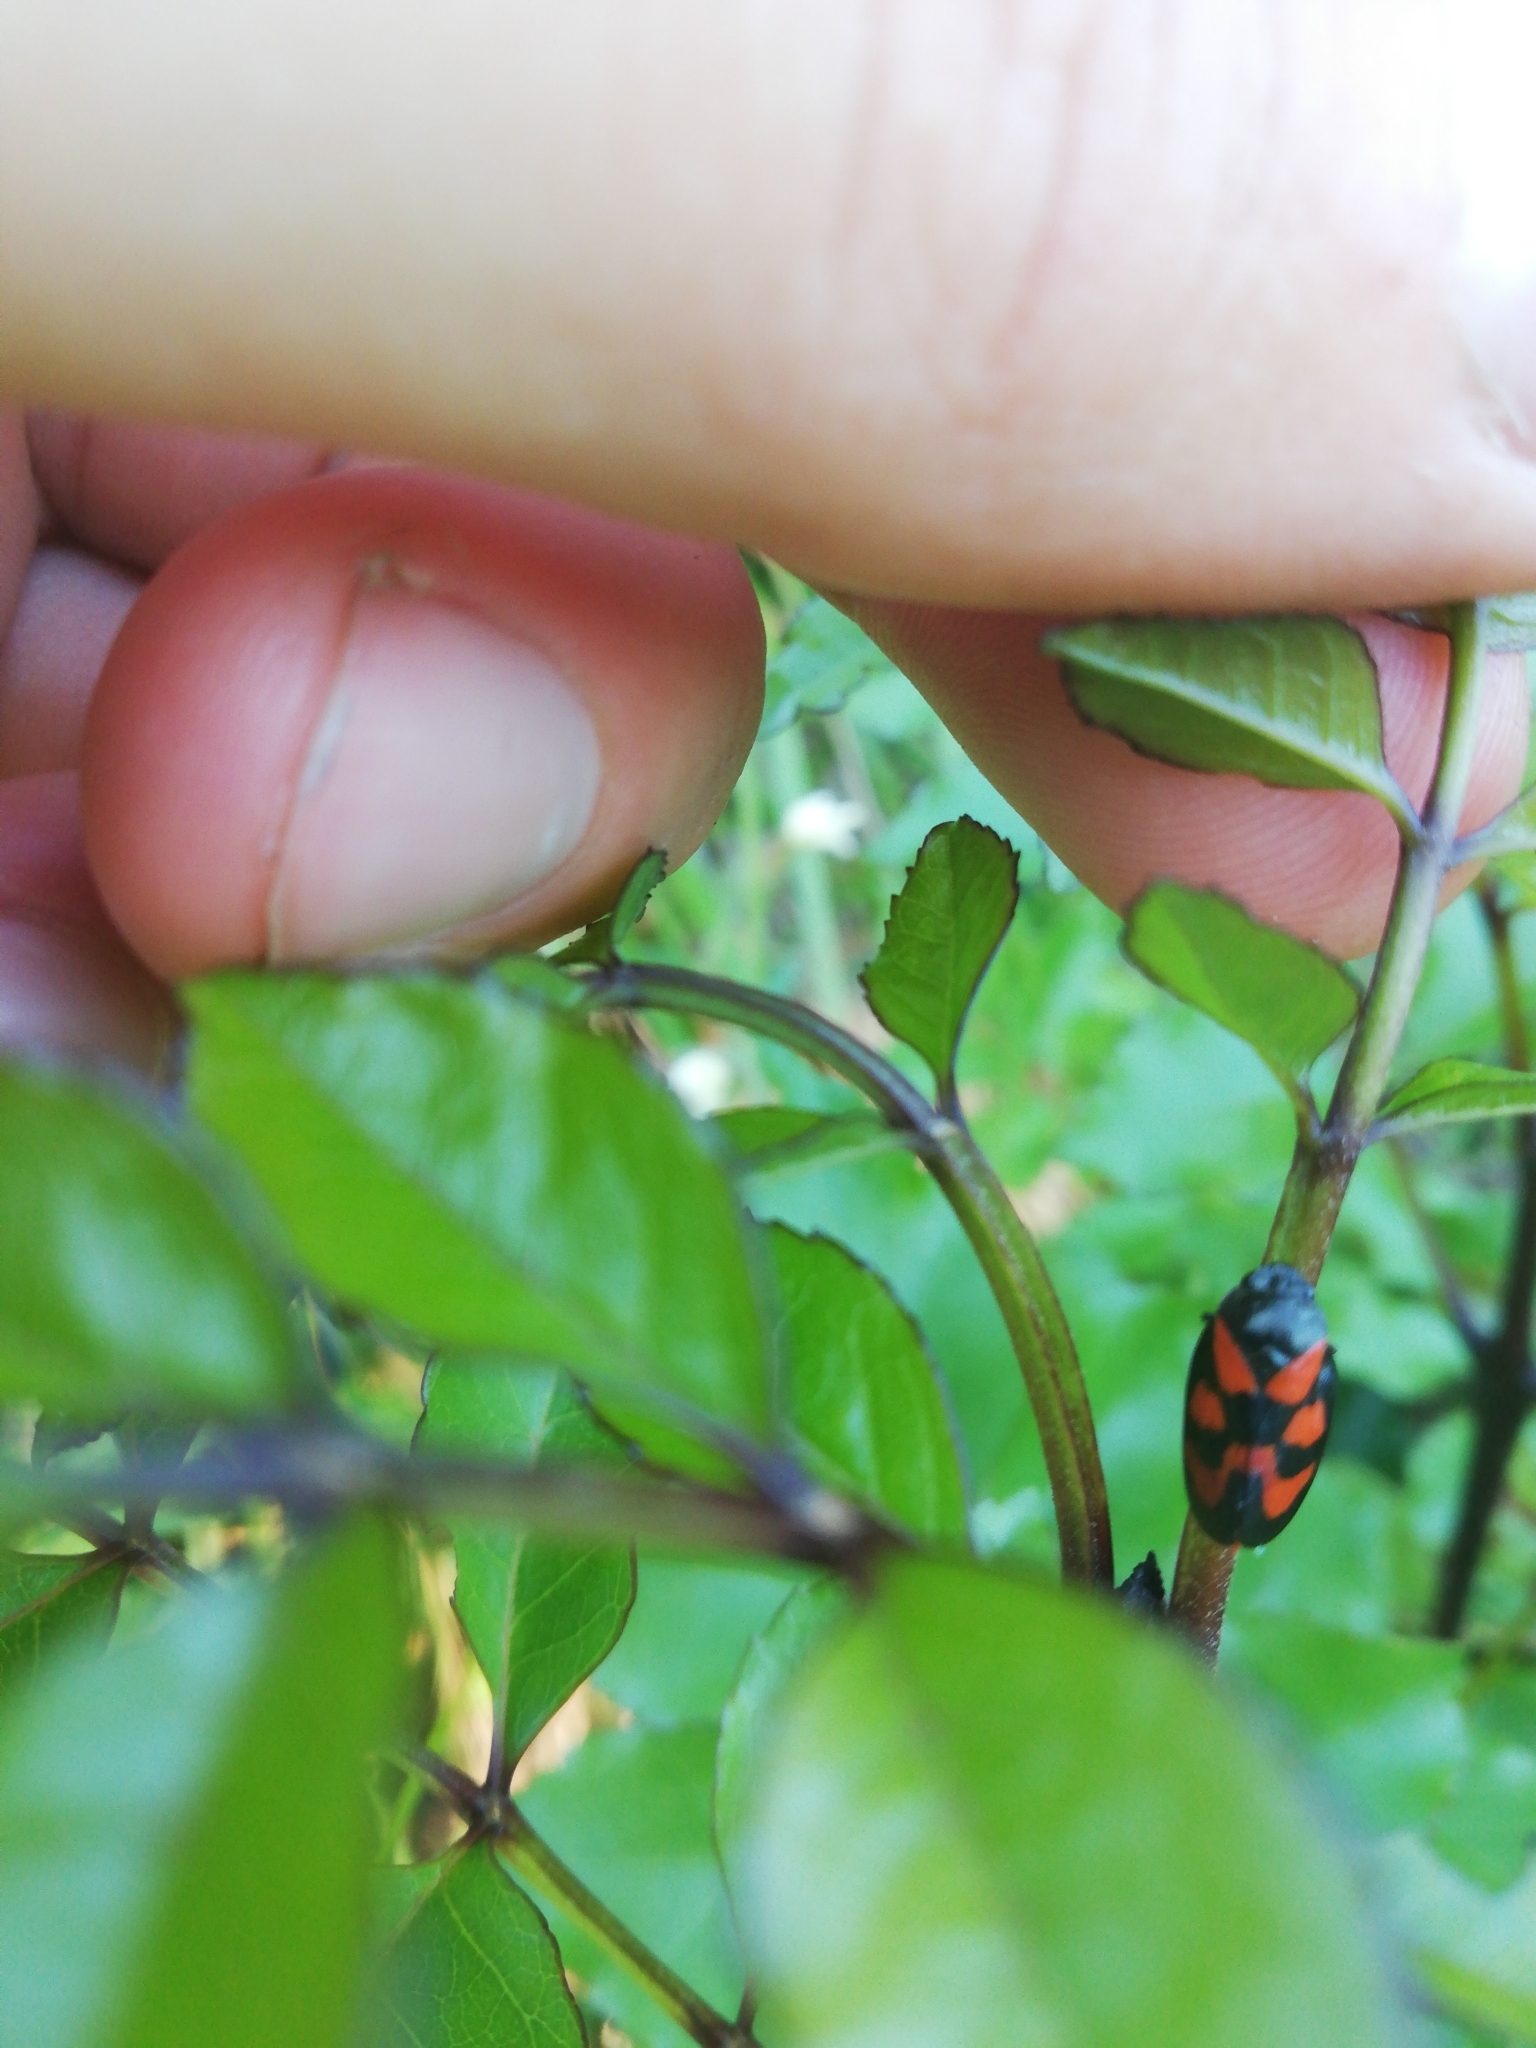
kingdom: Animalia
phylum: Arthropoda
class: Insecta
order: Hemiptera
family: Cercopidae
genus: Cercopis
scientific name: Cercopis vulnerata
